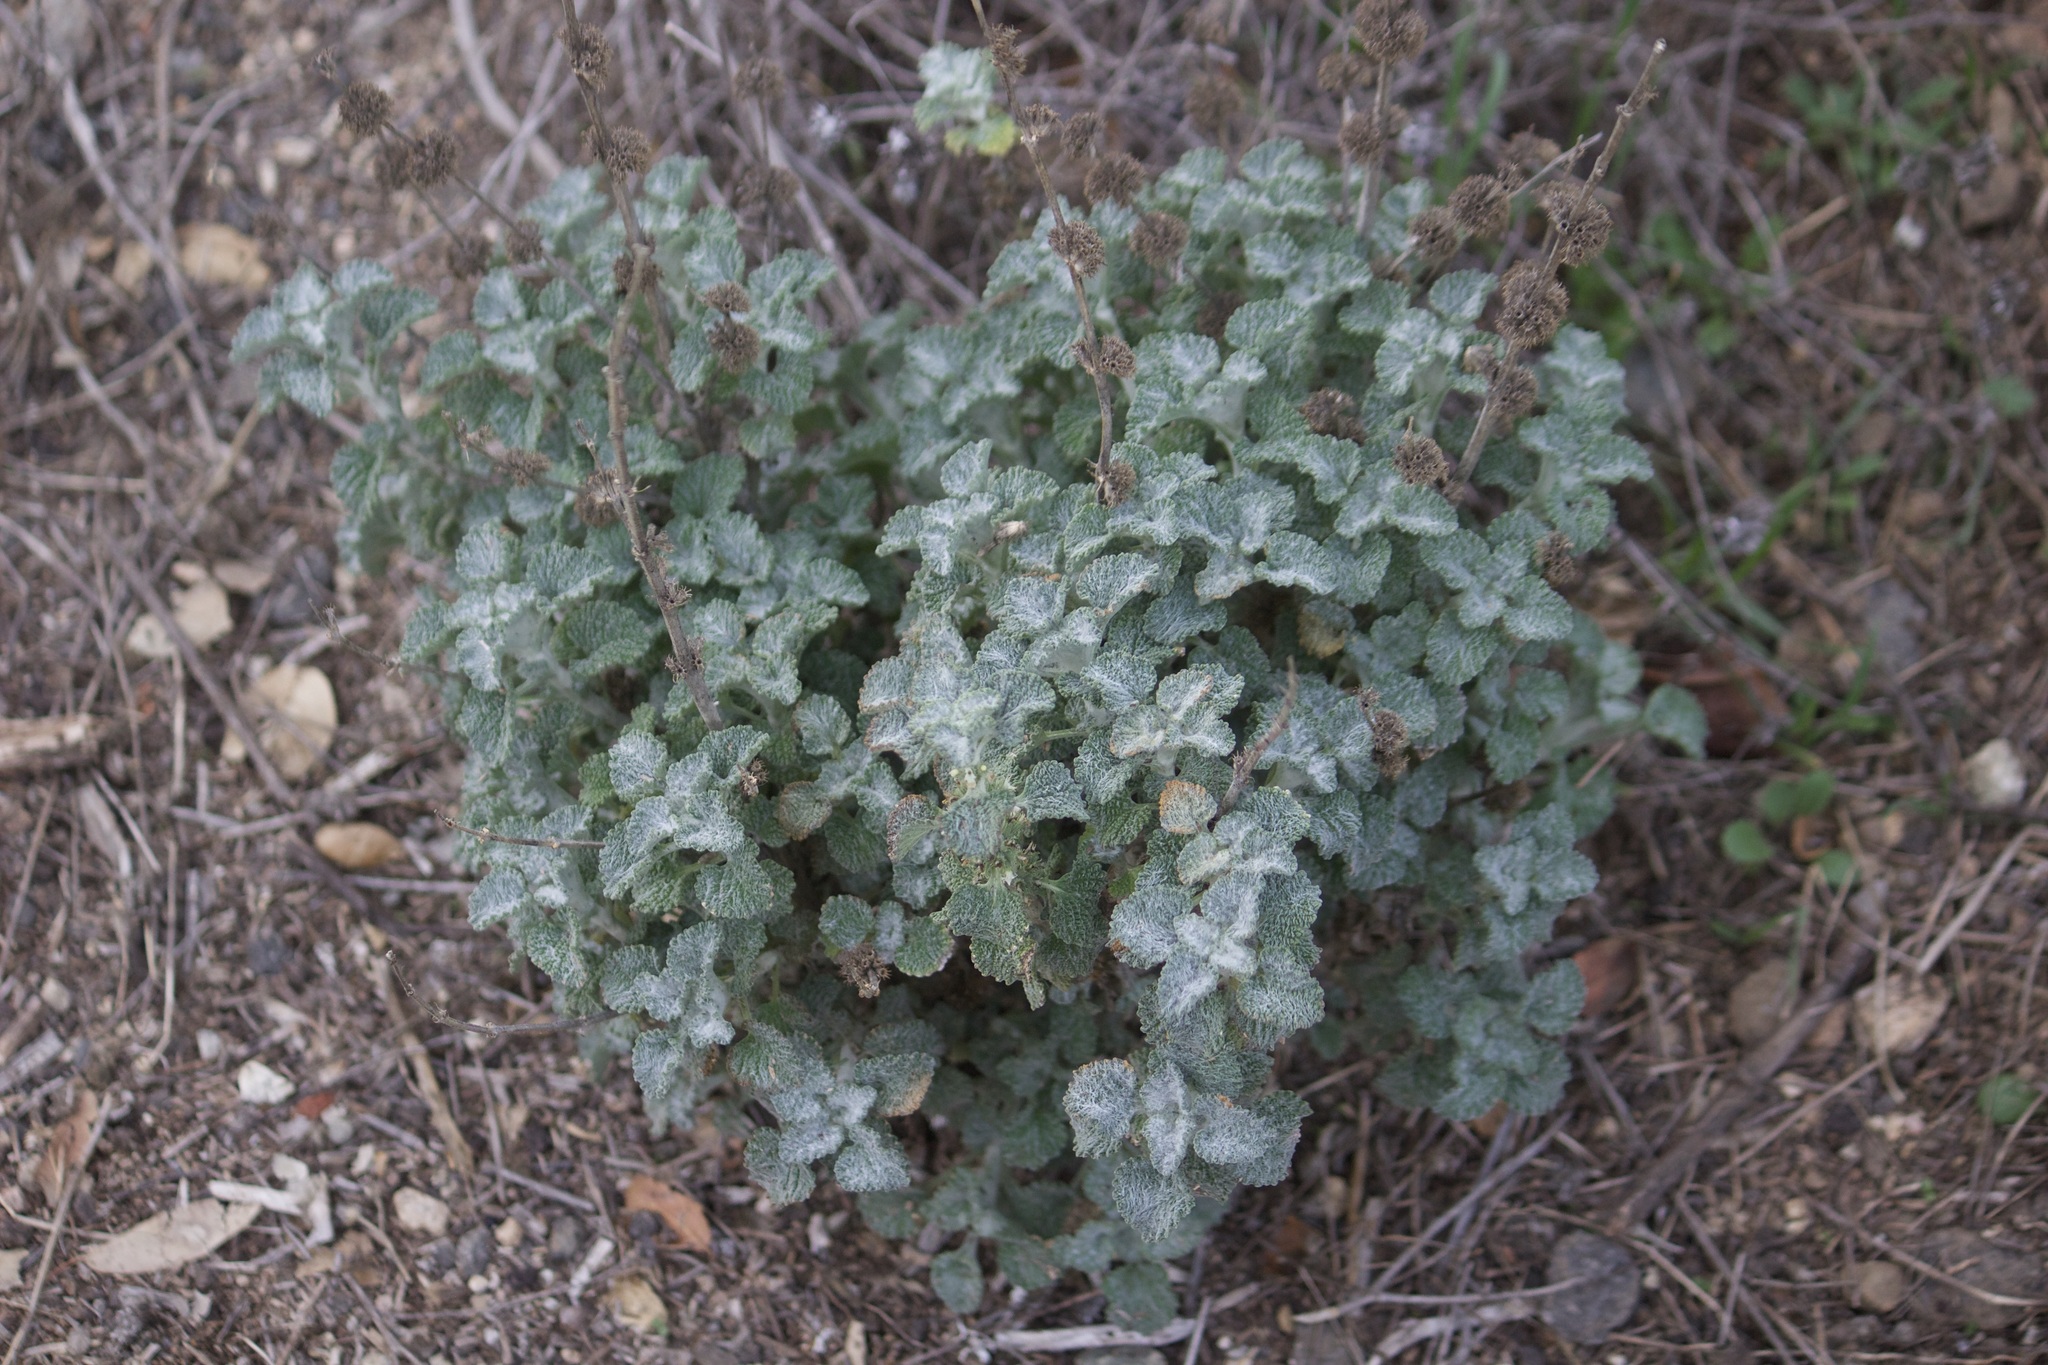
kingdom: Plantae
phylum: Tracheophyta
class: Magnoliopsida
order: Lamiales
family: Lamiaceae
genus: Marrubium
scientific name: Marrubium vulgare
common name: Horehound
